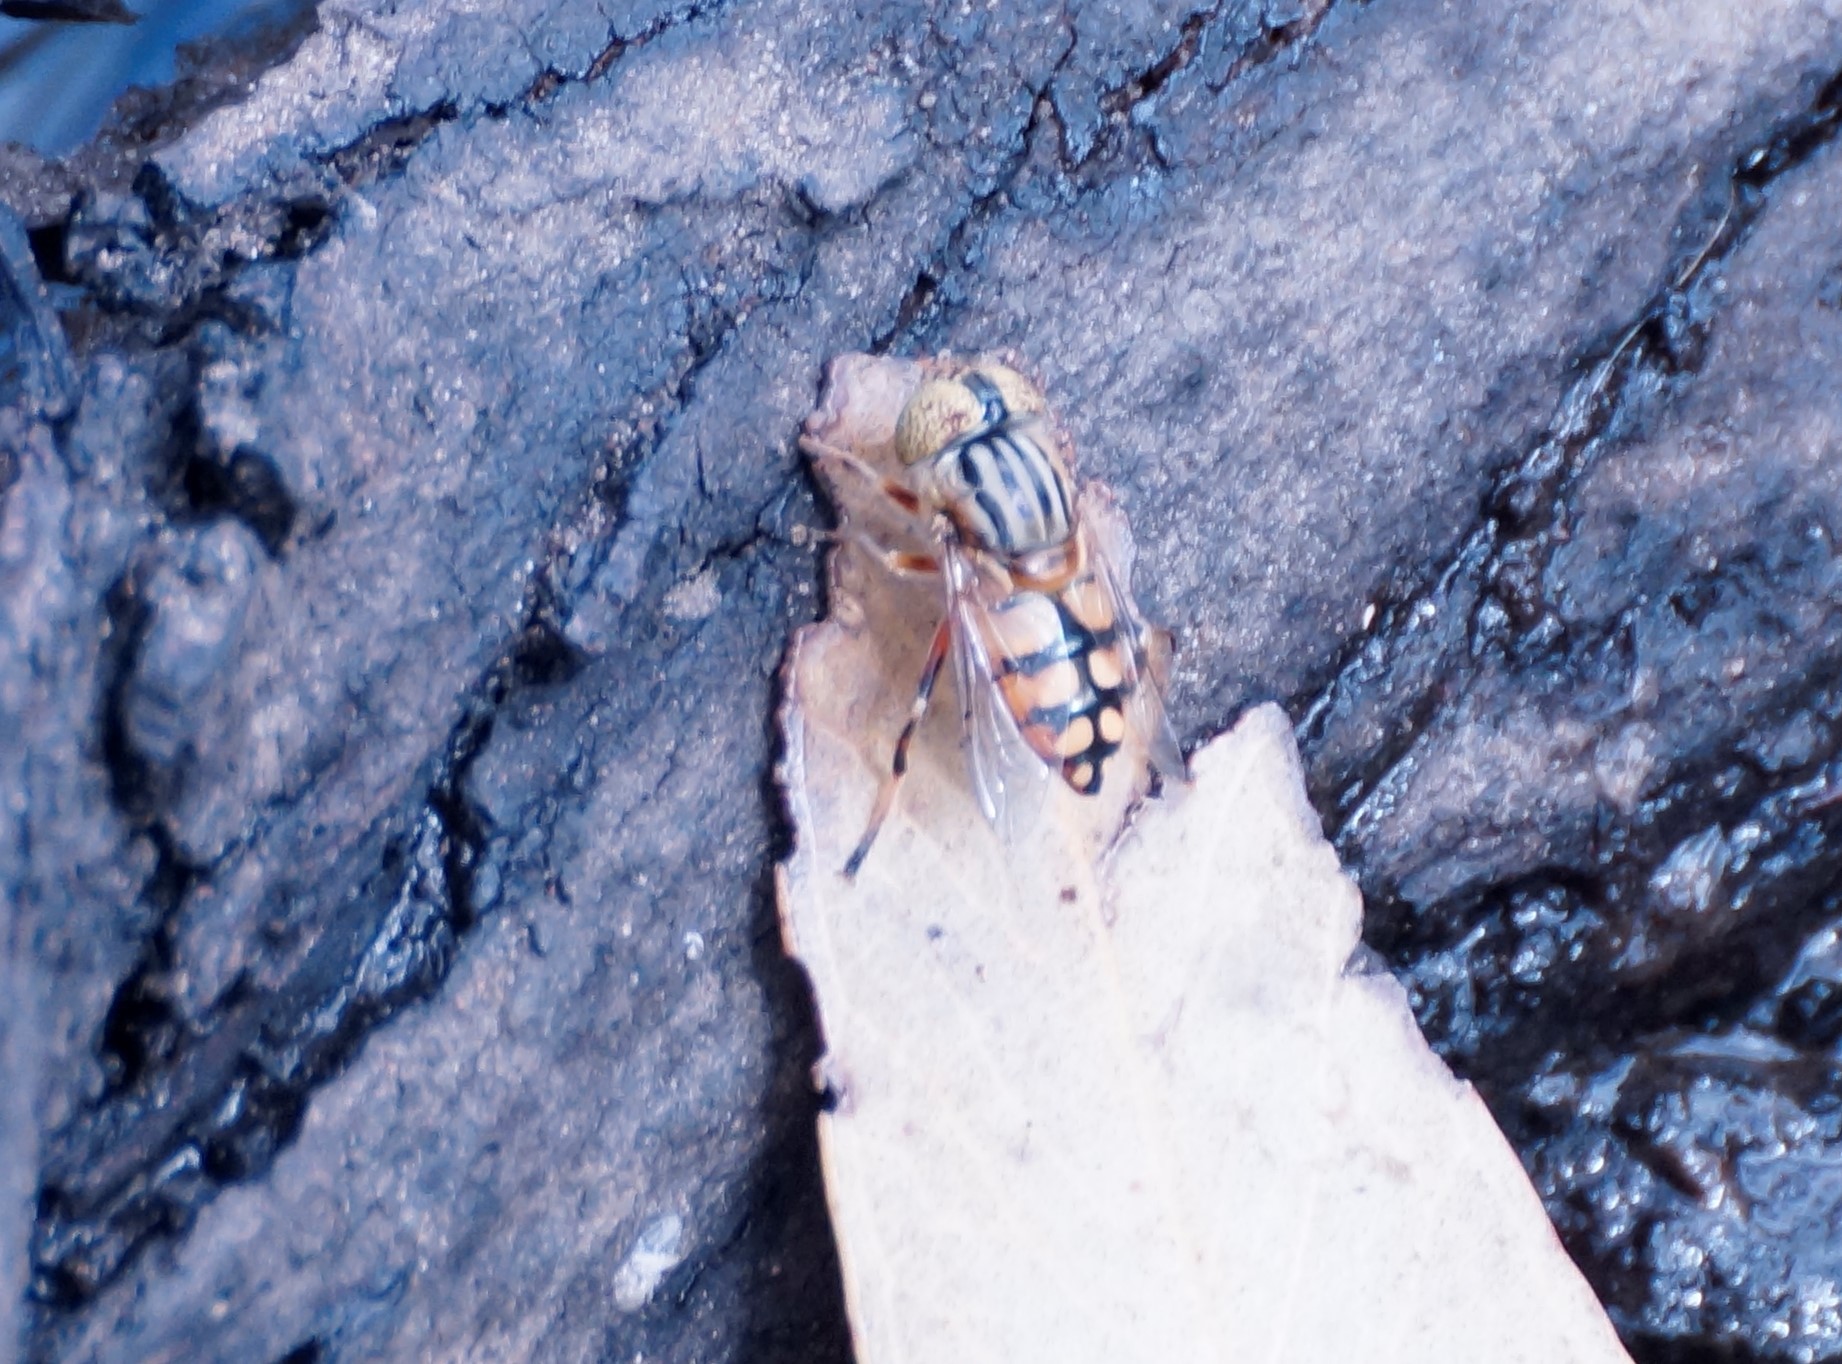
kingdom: Animalia
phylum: Arthropoda
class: Insecta
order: Diptera
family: Syrphidae
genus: Eristalinus
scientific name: Eristalinus punctulatus
